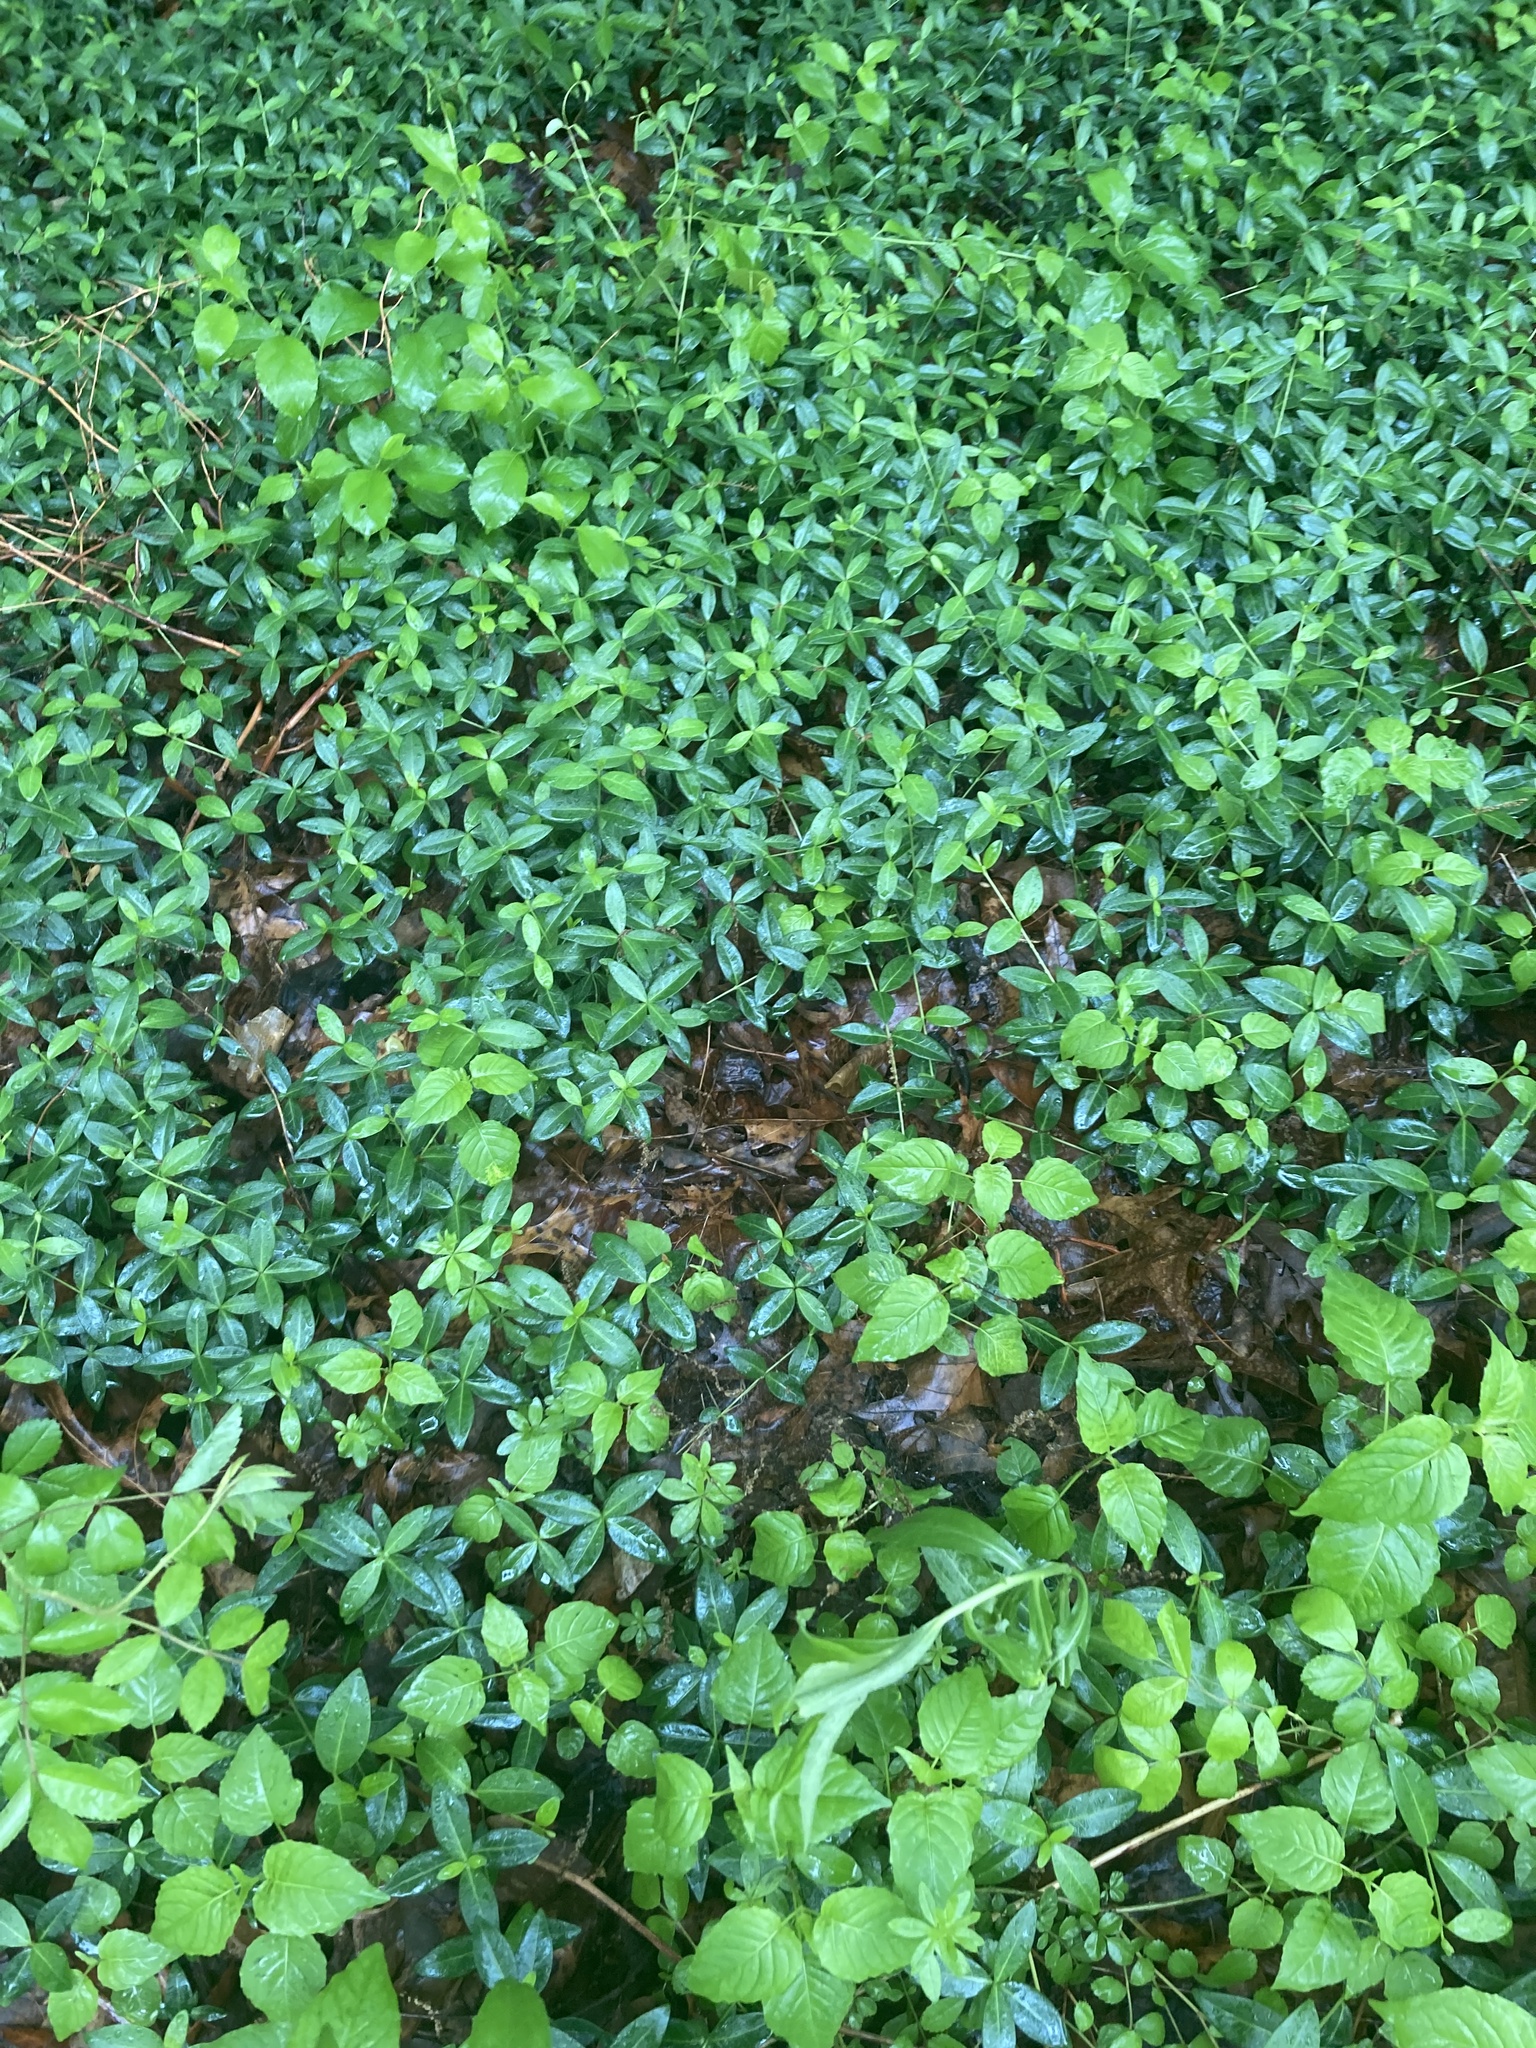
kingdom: Plantae
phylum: Tracheophyta
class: Magnoliopsida
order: Gentianales
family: Apocynaceae
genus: Vinca
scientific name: Vinca minor
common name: Lesser periwinkle
